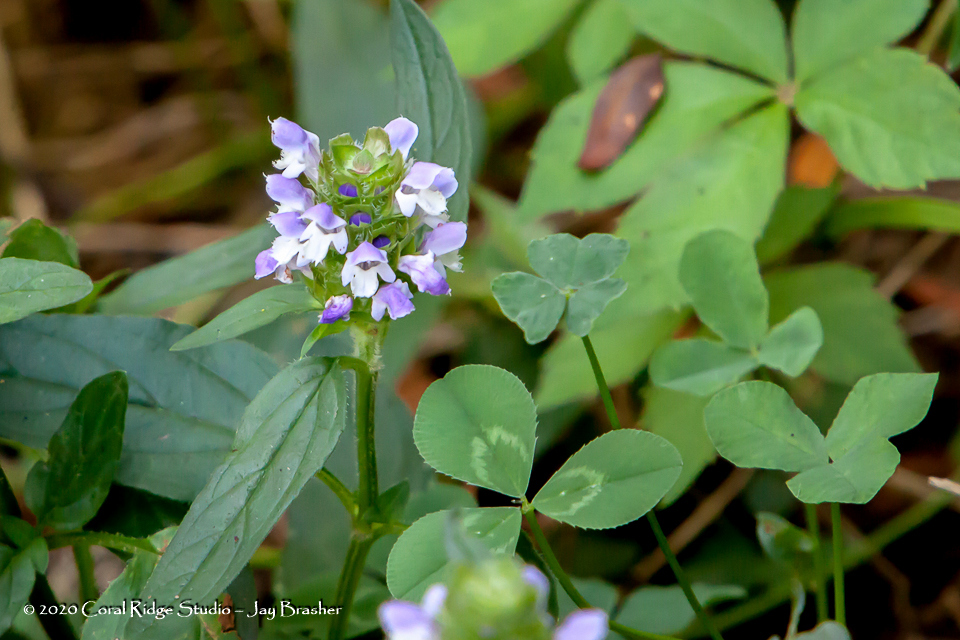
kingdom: Plantae
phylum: Tracheophyta
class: Magnoliopsida
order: Lamiales
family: Lamiaceae
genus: Prunella
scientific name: Prunella vulgaris
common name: Heal-all
